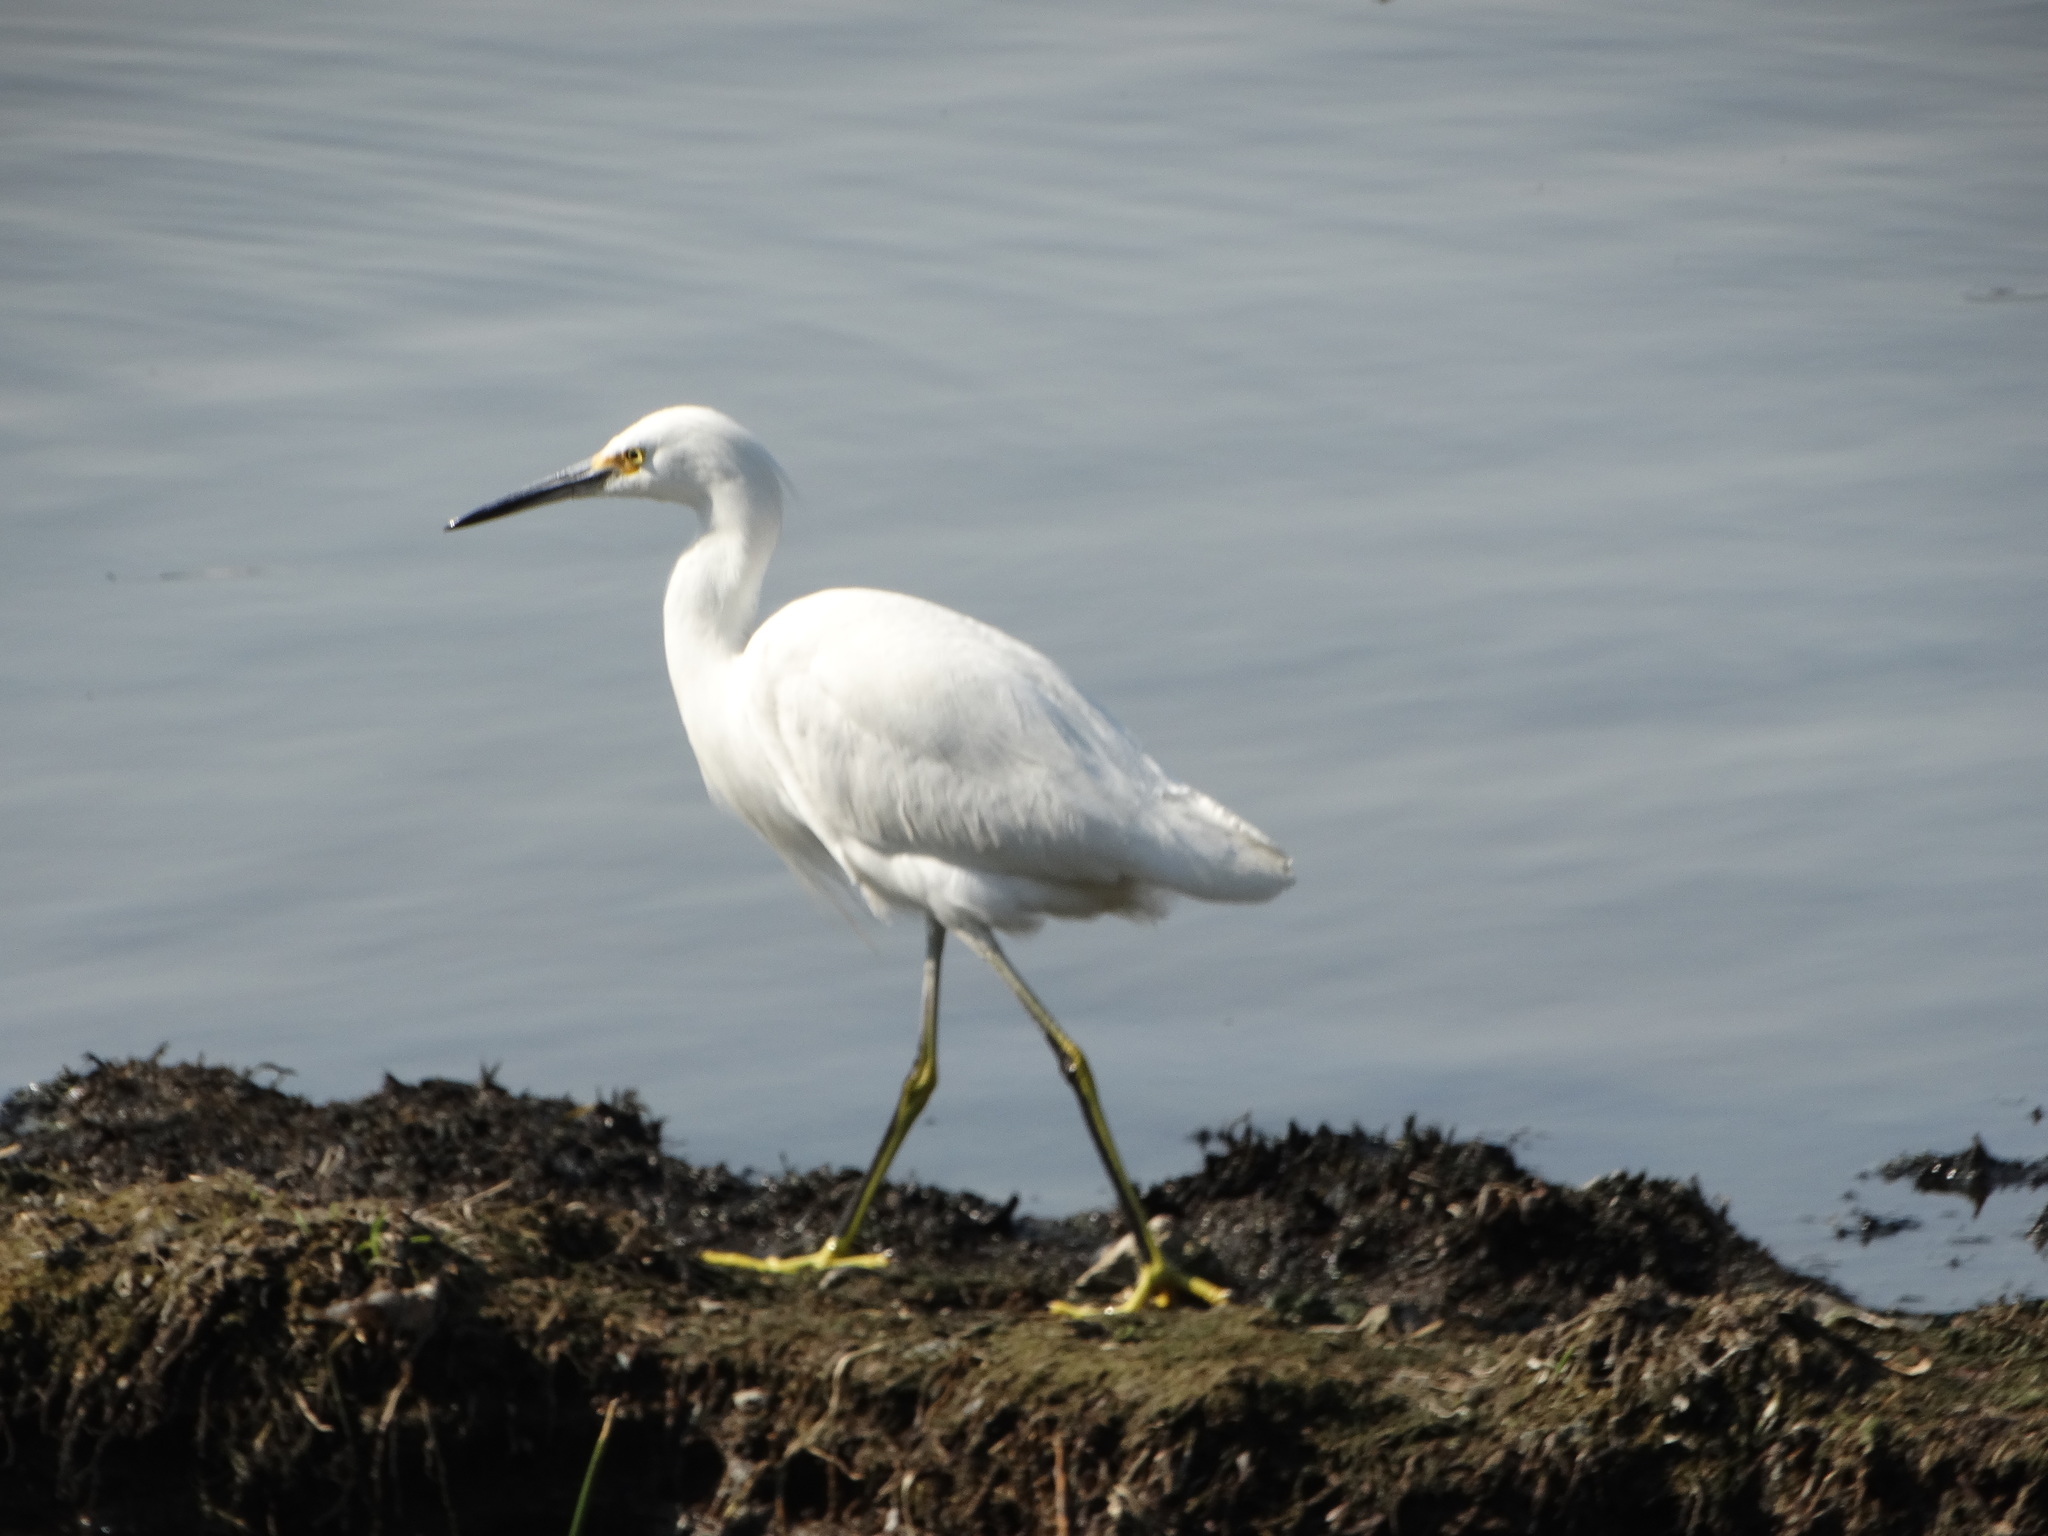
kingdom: Animalia
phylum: Chordata
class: Aves
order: Pelecaniformes
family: Ardeidae
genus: Egretta
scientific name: Egretta thula
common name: Snowy egret
